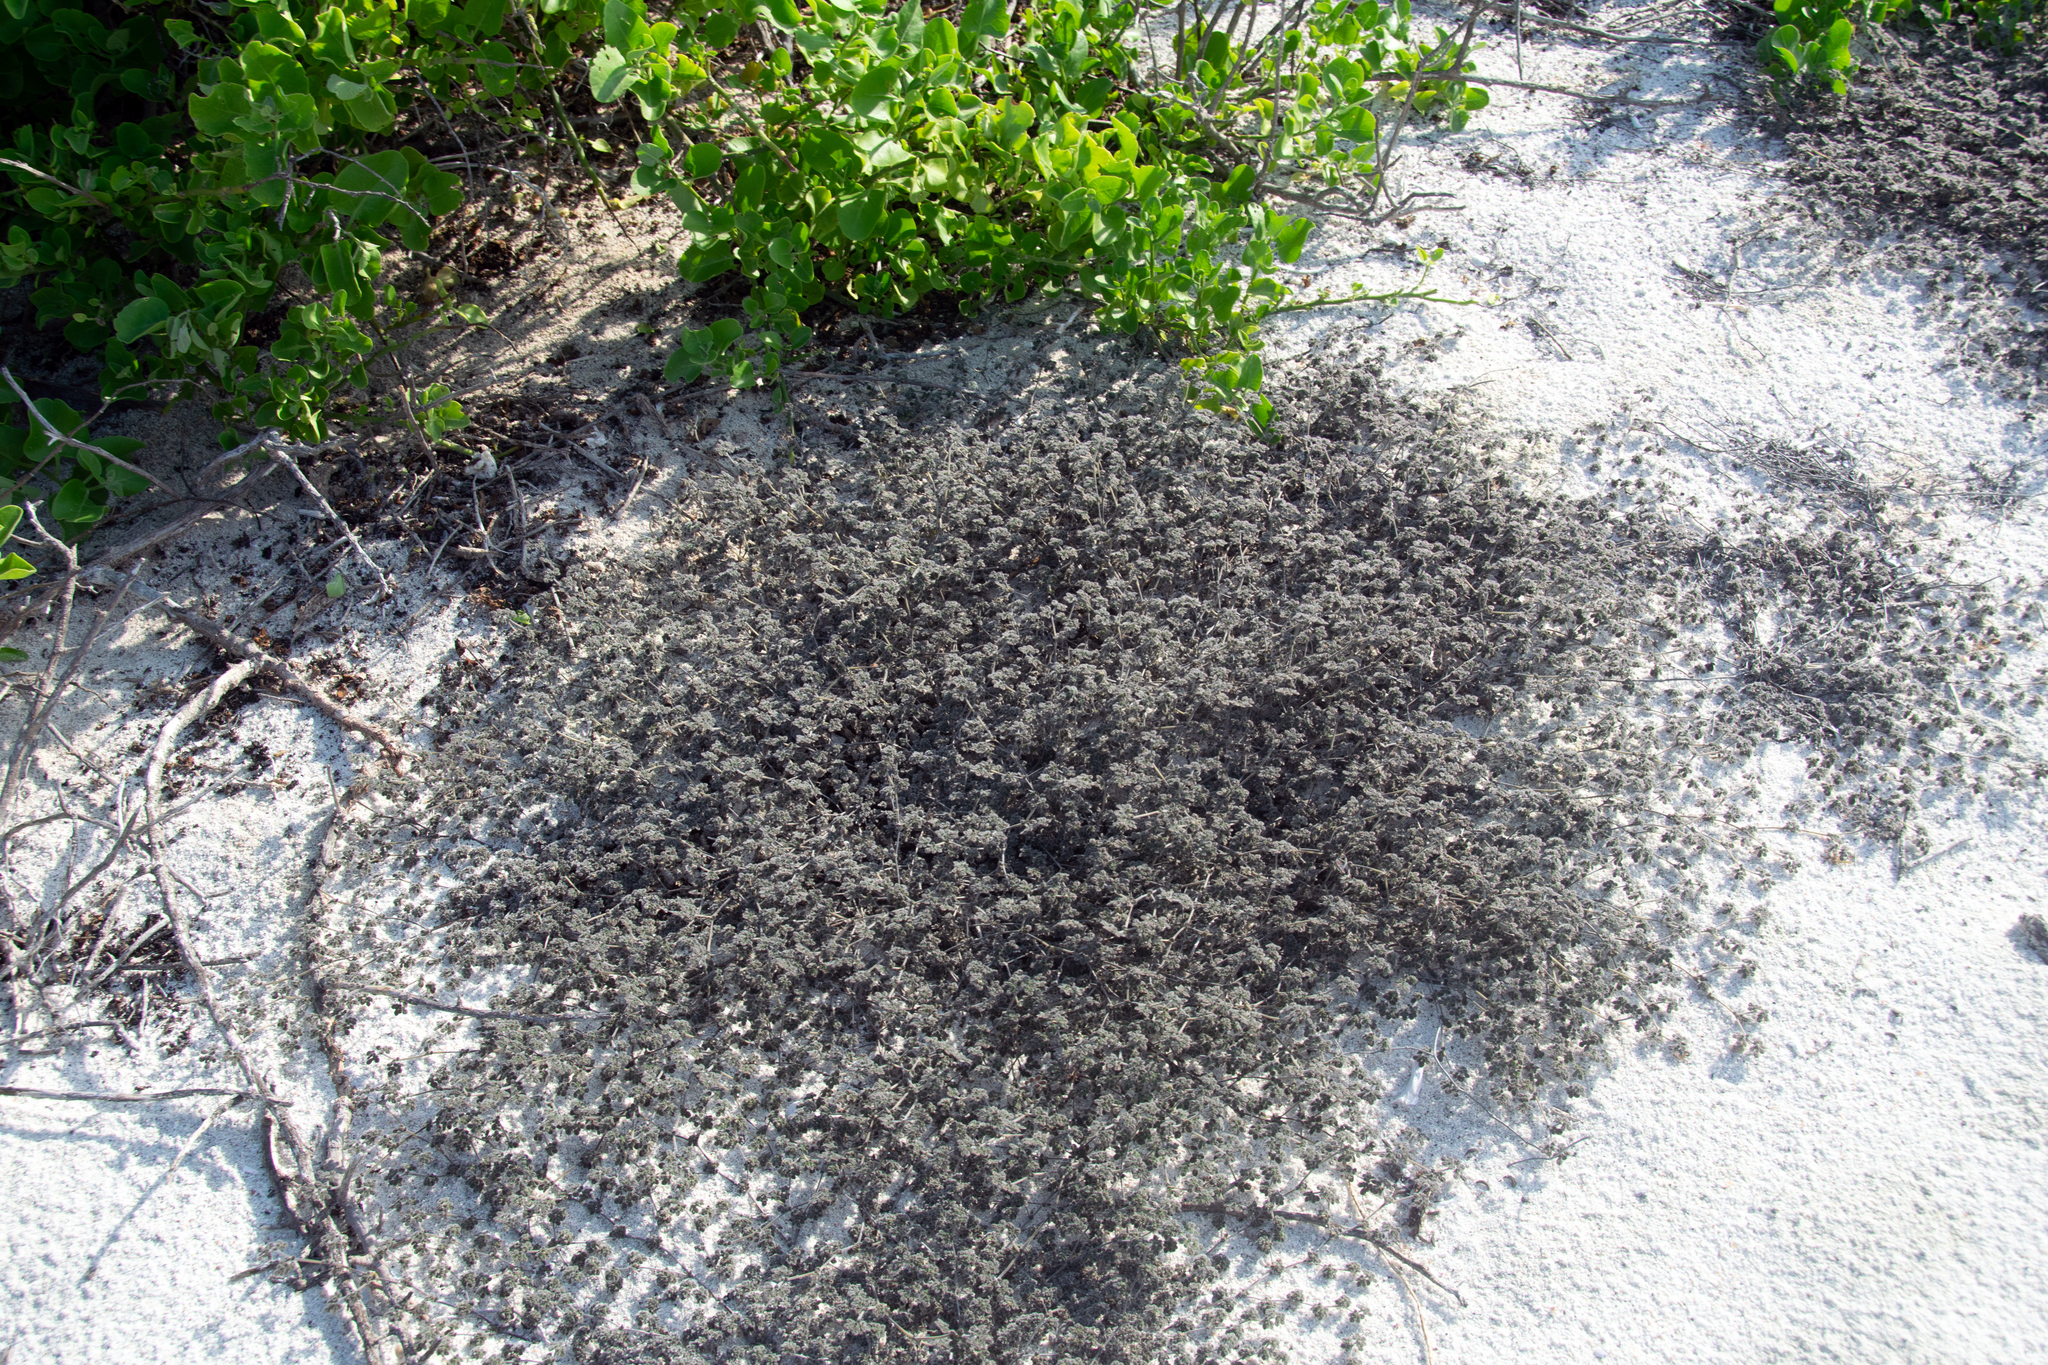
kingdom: Plantae
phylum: Tracheophyta
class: Magnoliopsida
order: Boraginales
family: Ehretiaceae
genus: Tiquilia
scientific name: Tiquilia galapagoa
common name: Gray matplant
